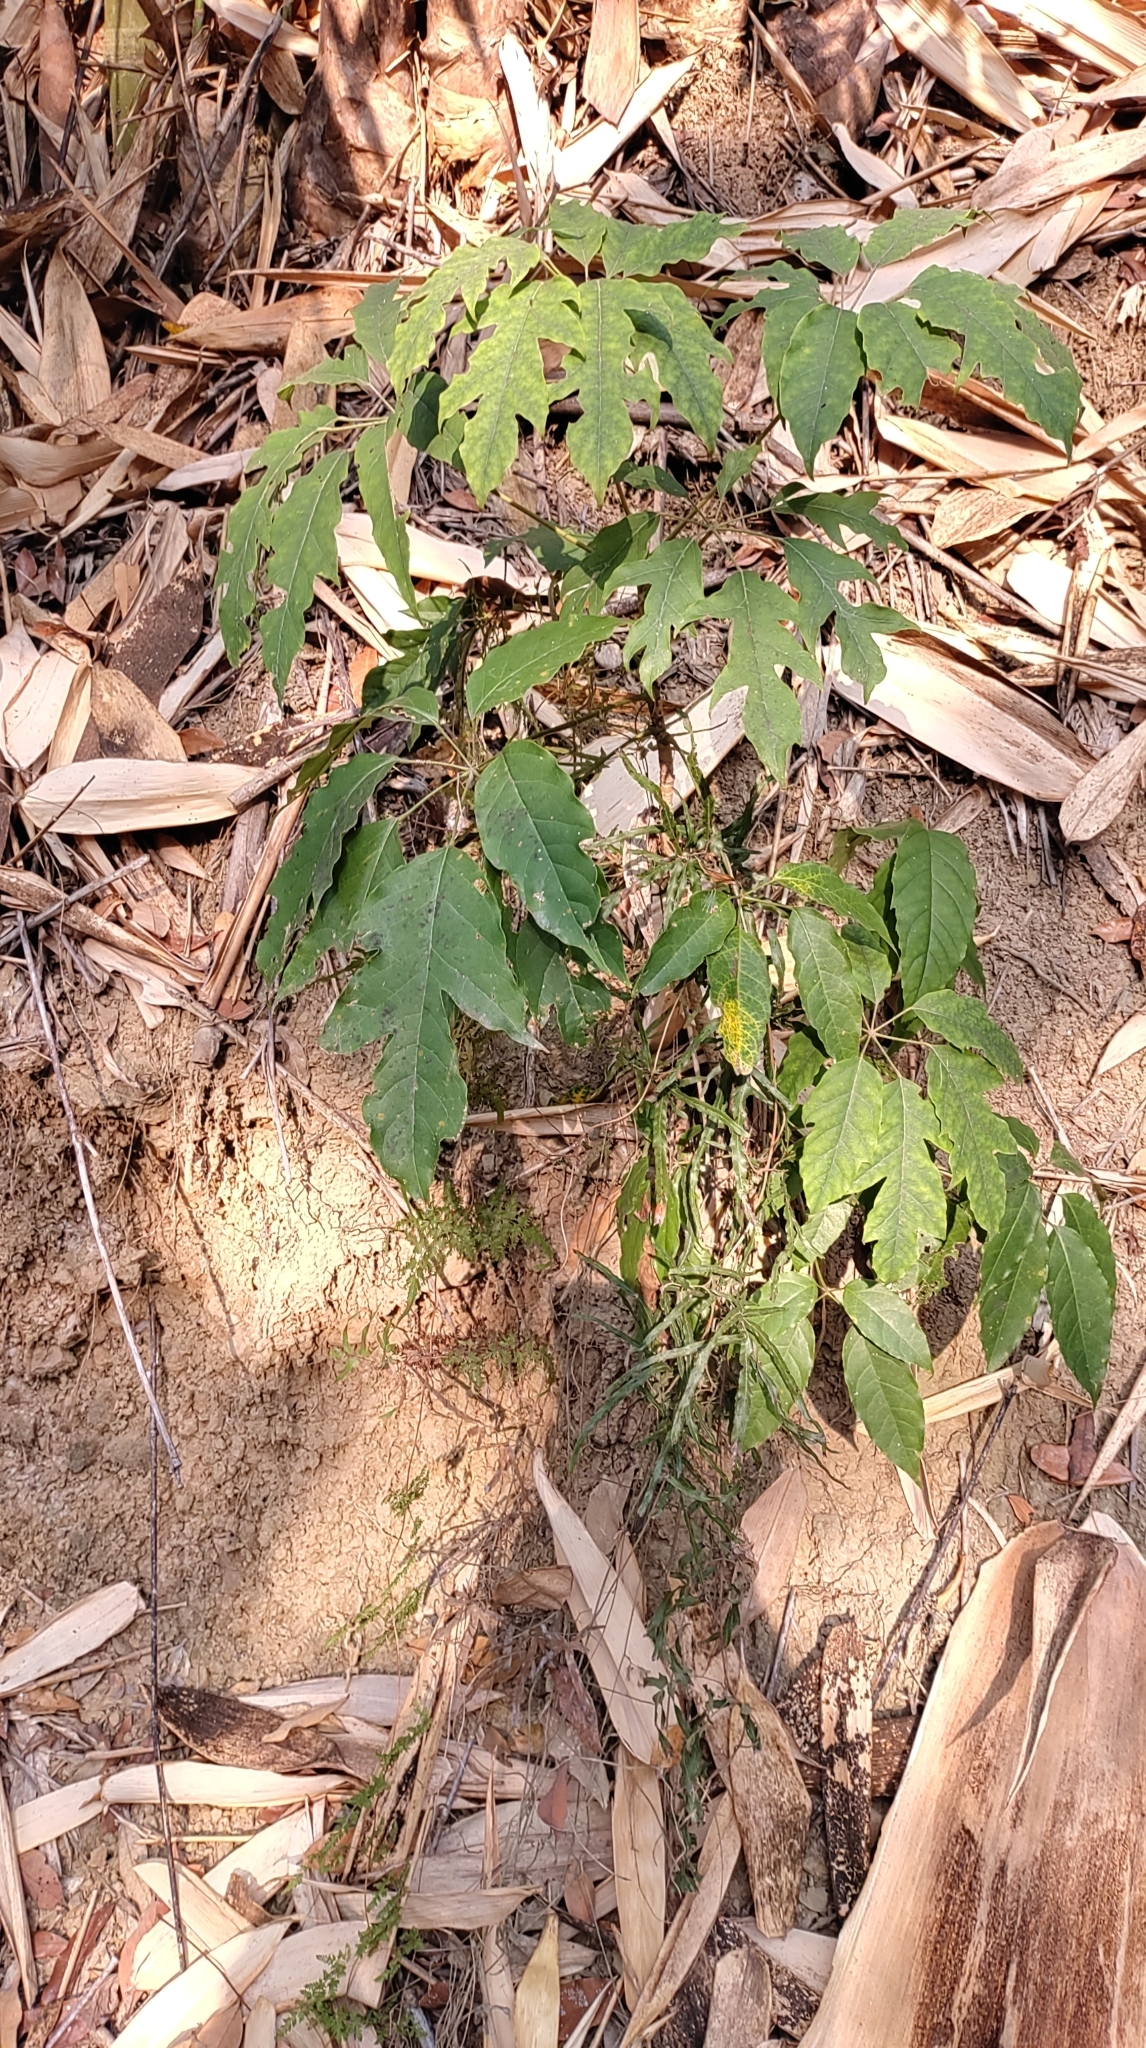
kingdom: Plantae
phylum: Tracheophyta
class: Magnoliopsida
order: Apiales
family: Araliaceae
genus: Heptapleurum
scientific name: Heptapleurum heptaphyllum
